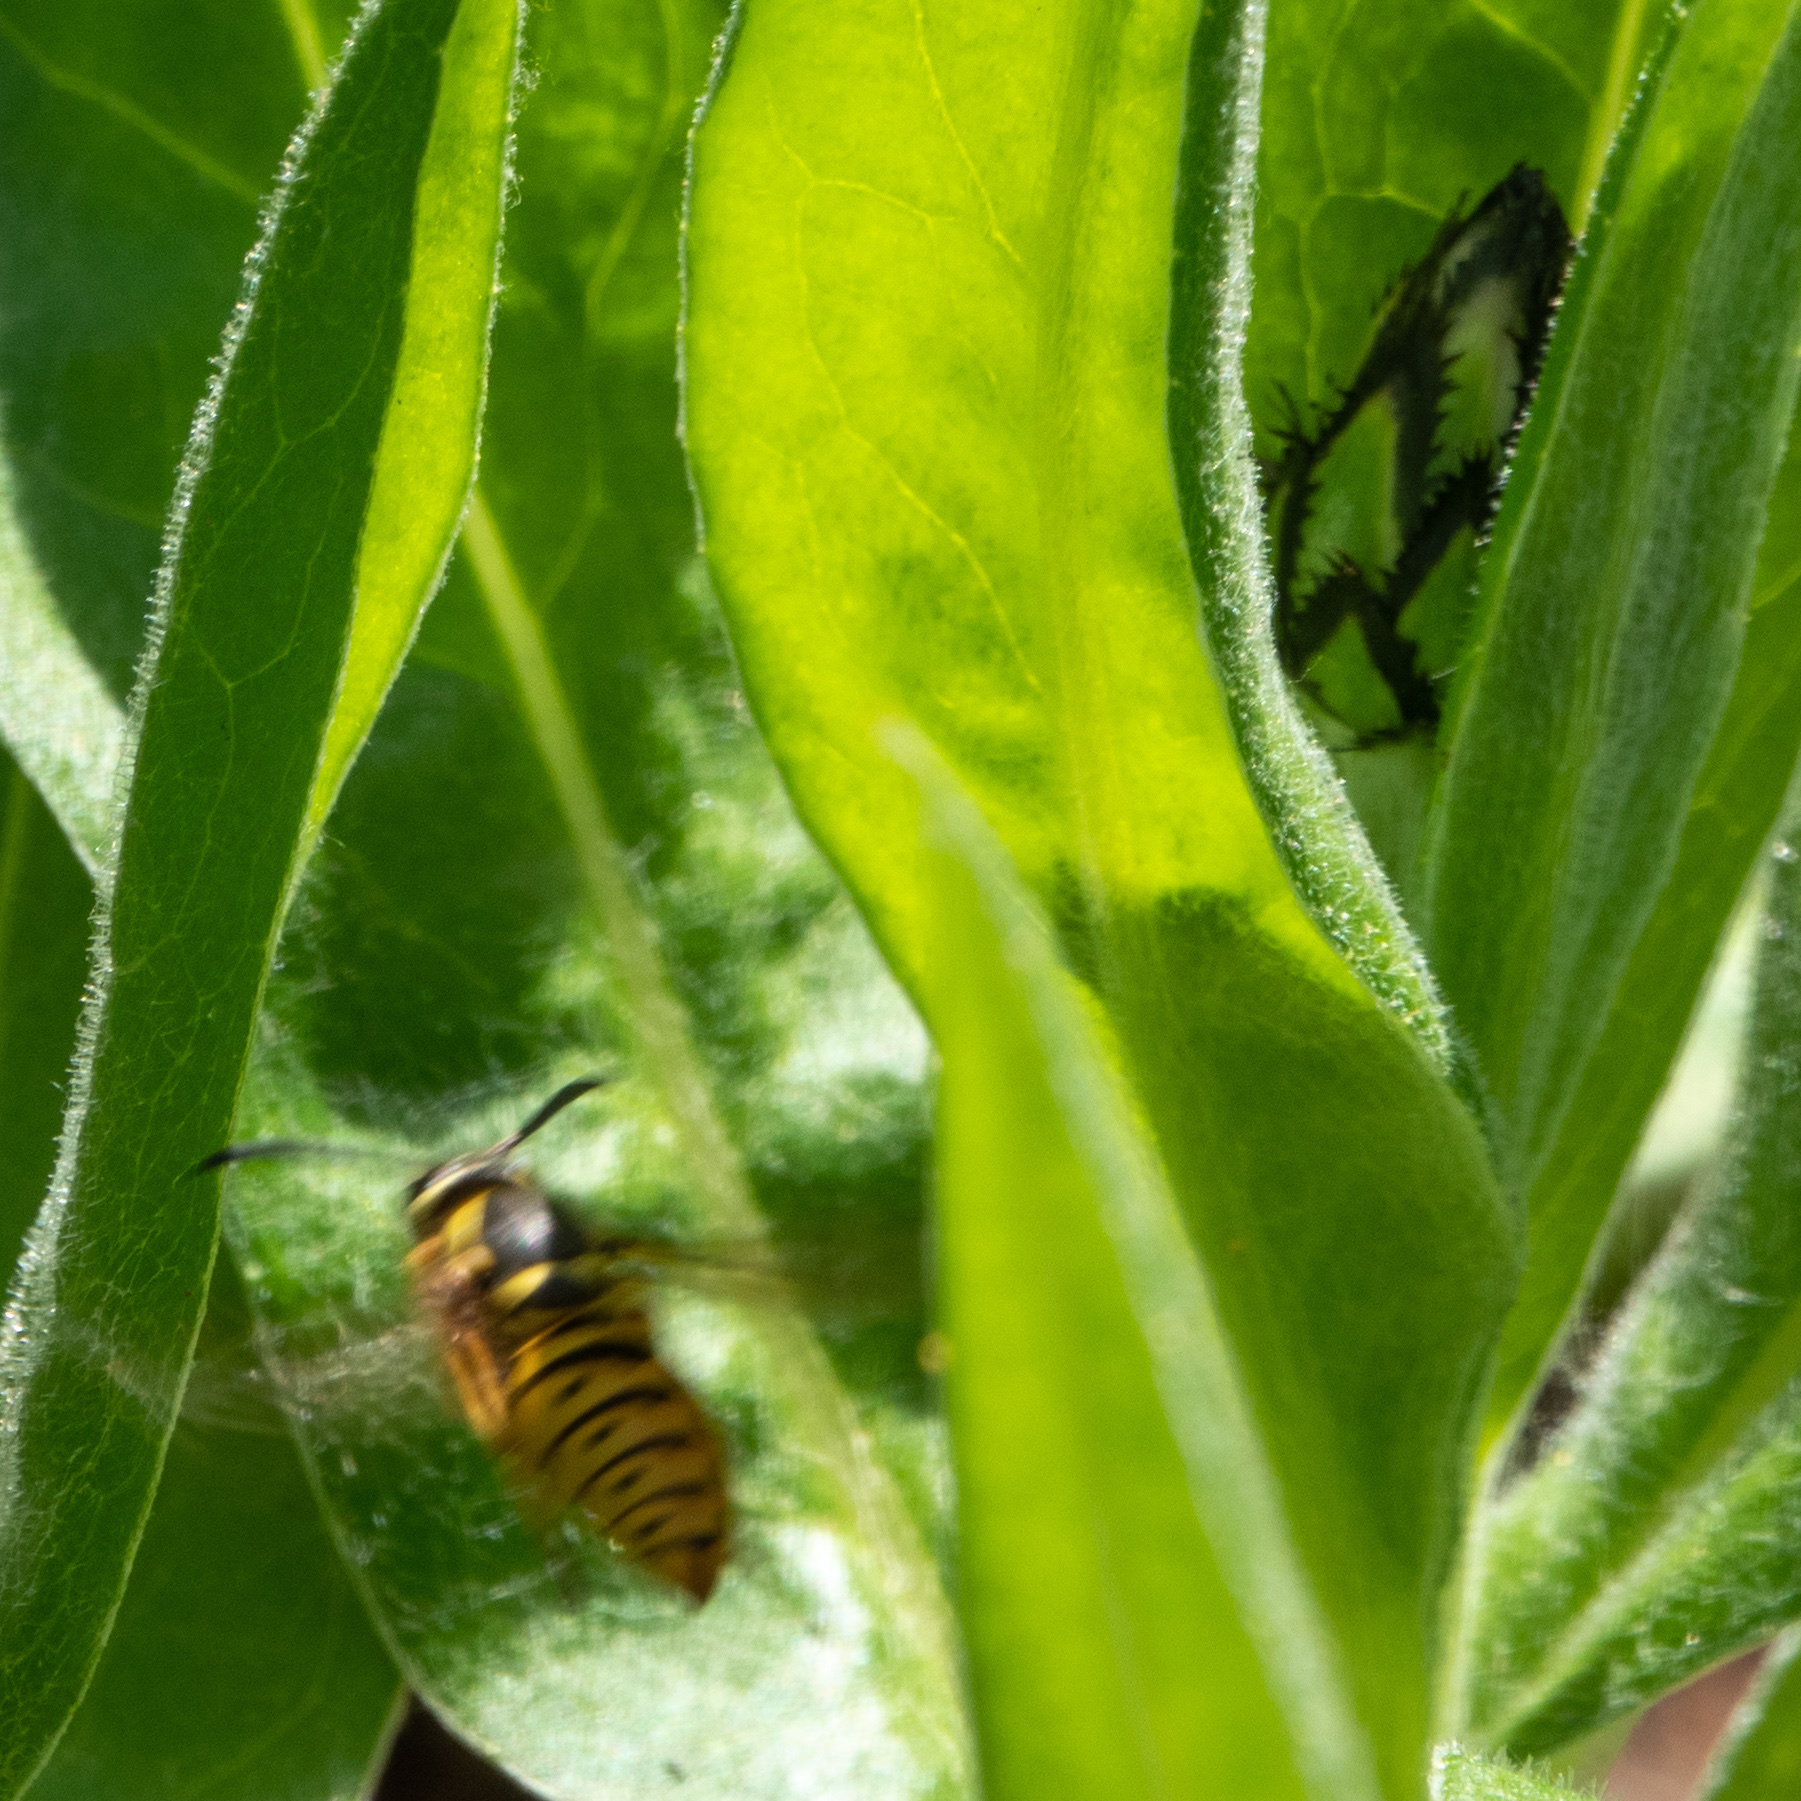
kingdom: Animalia
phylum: Arthropoda
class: Insecta
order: Hymenoptera
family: Vespidae
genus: Vespula
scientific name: Vespula maculifrons
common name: Eastern yellowjacket
